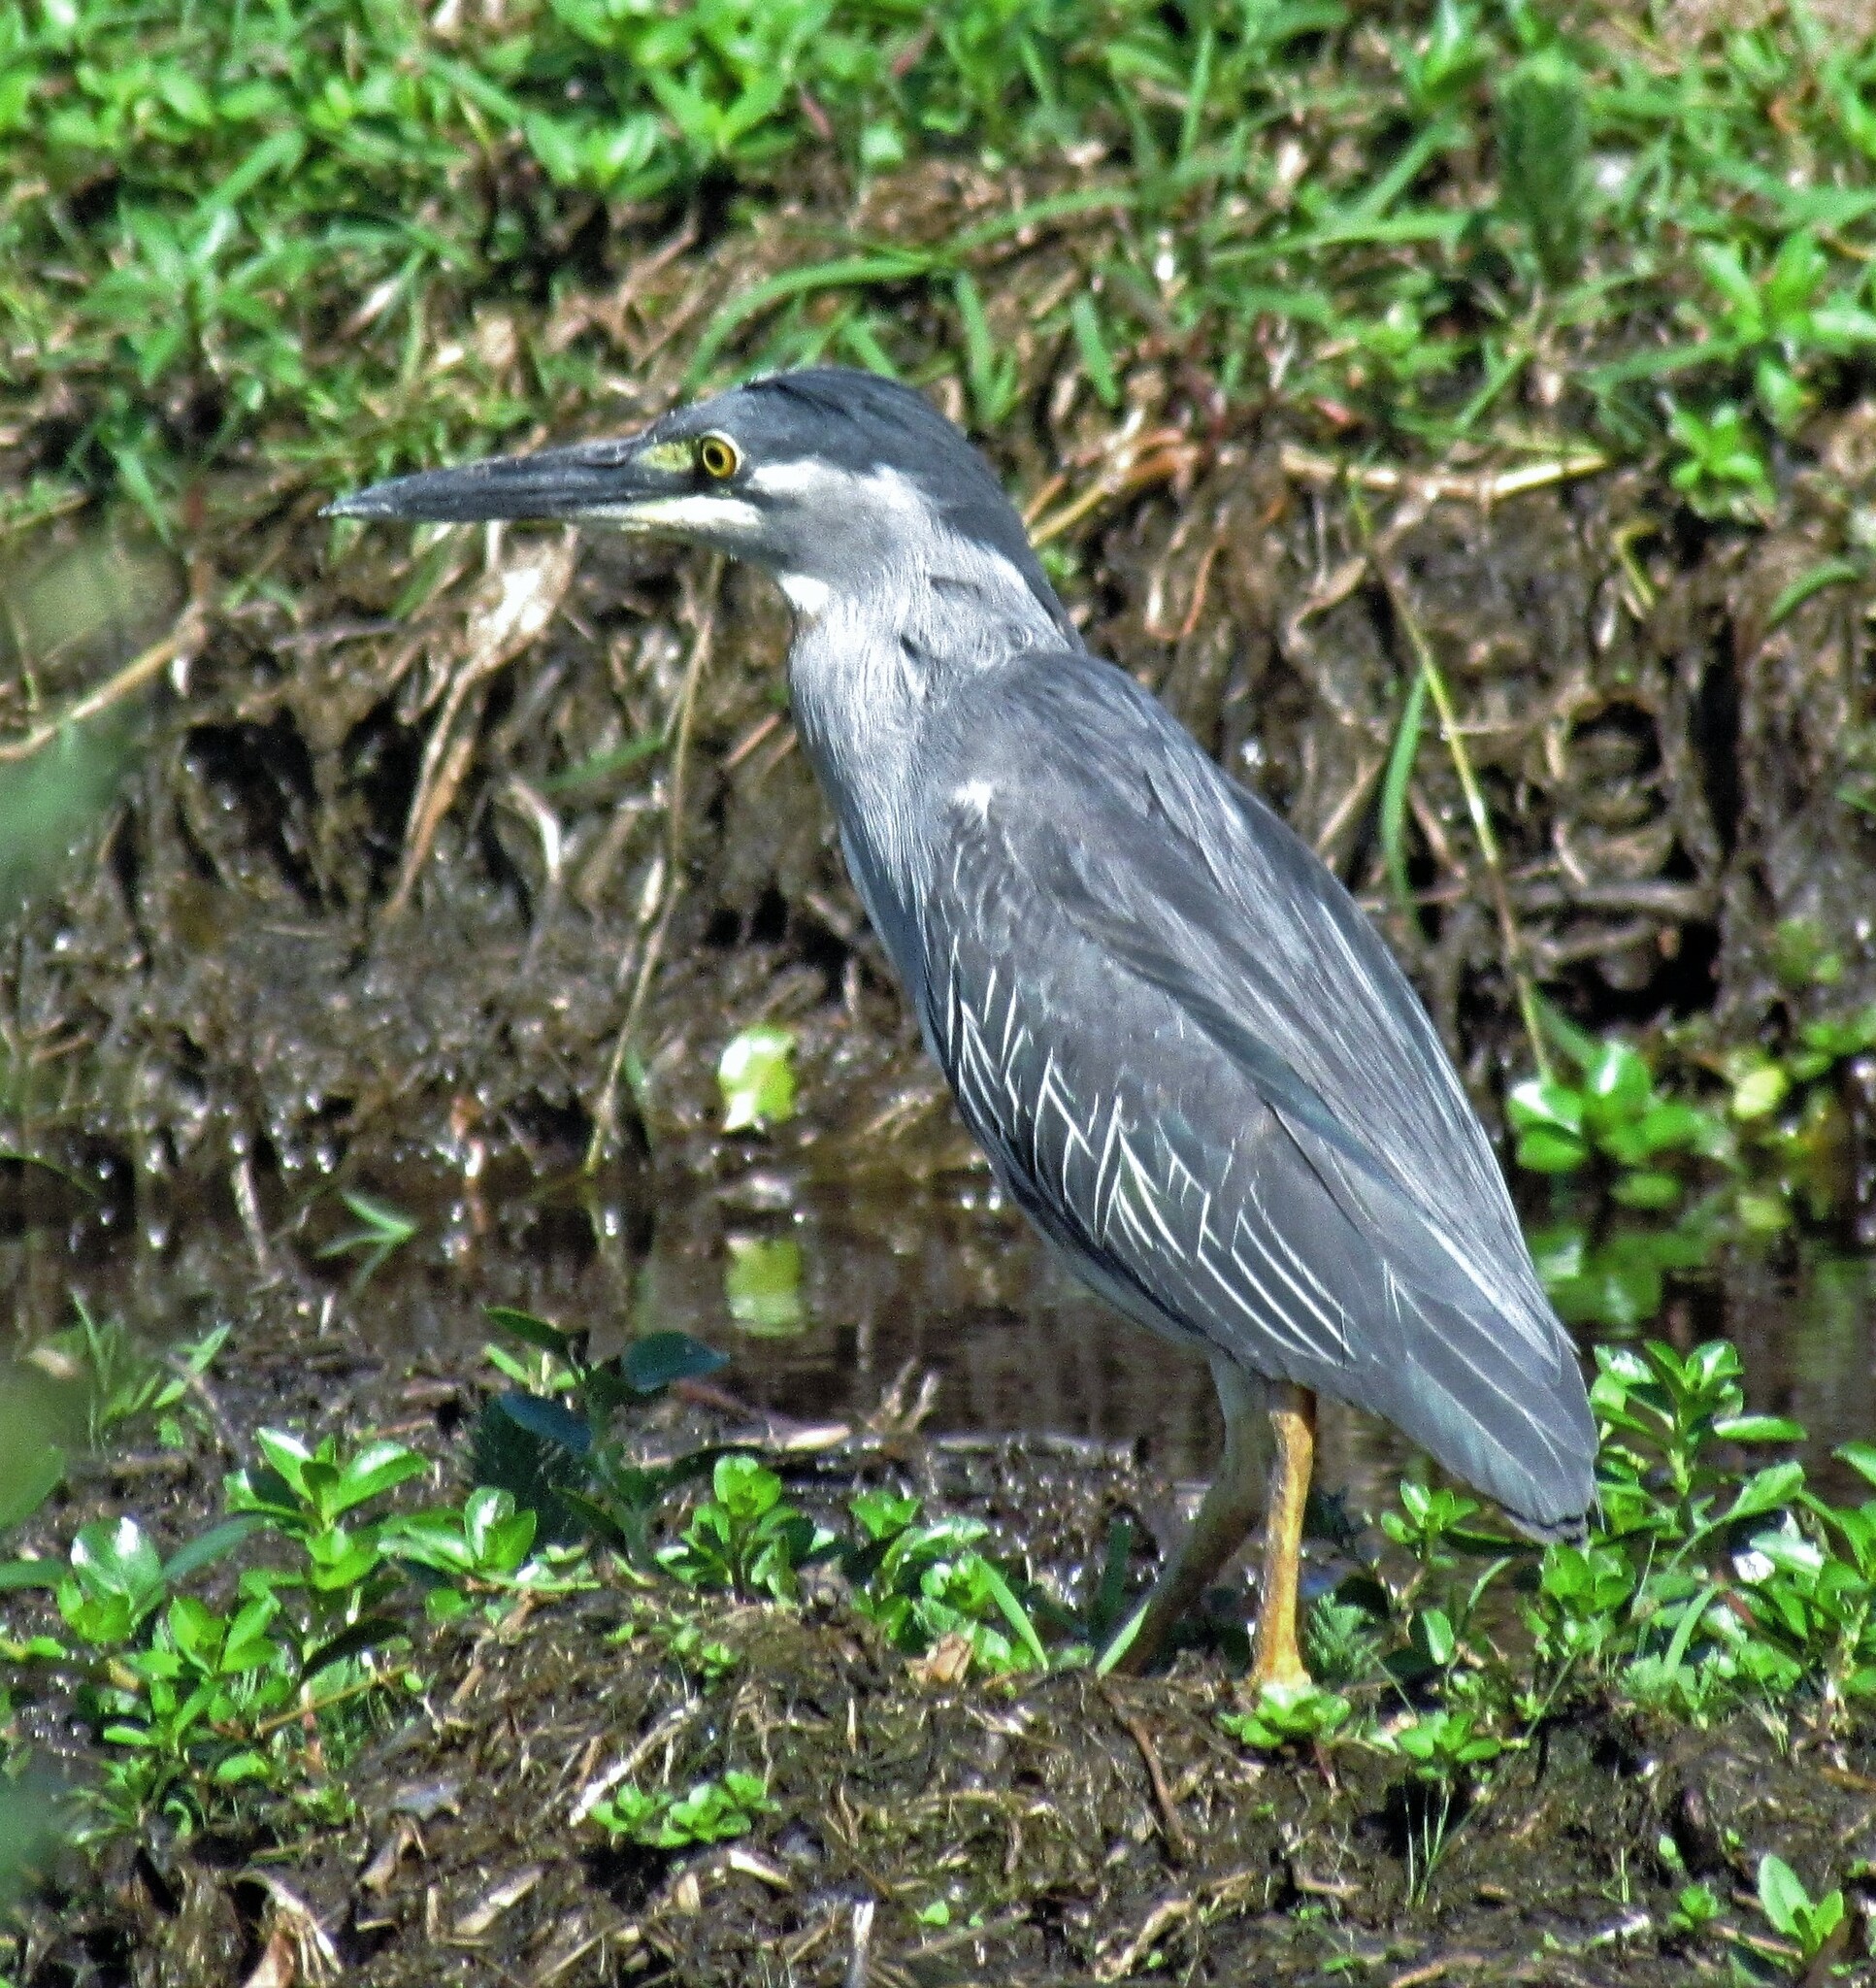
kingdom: Animalia
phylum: Chordata
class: Aves
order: Pelecaniformes
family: Ardeidae
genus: Butorides
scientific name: Butorides striata
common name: Striated heron
